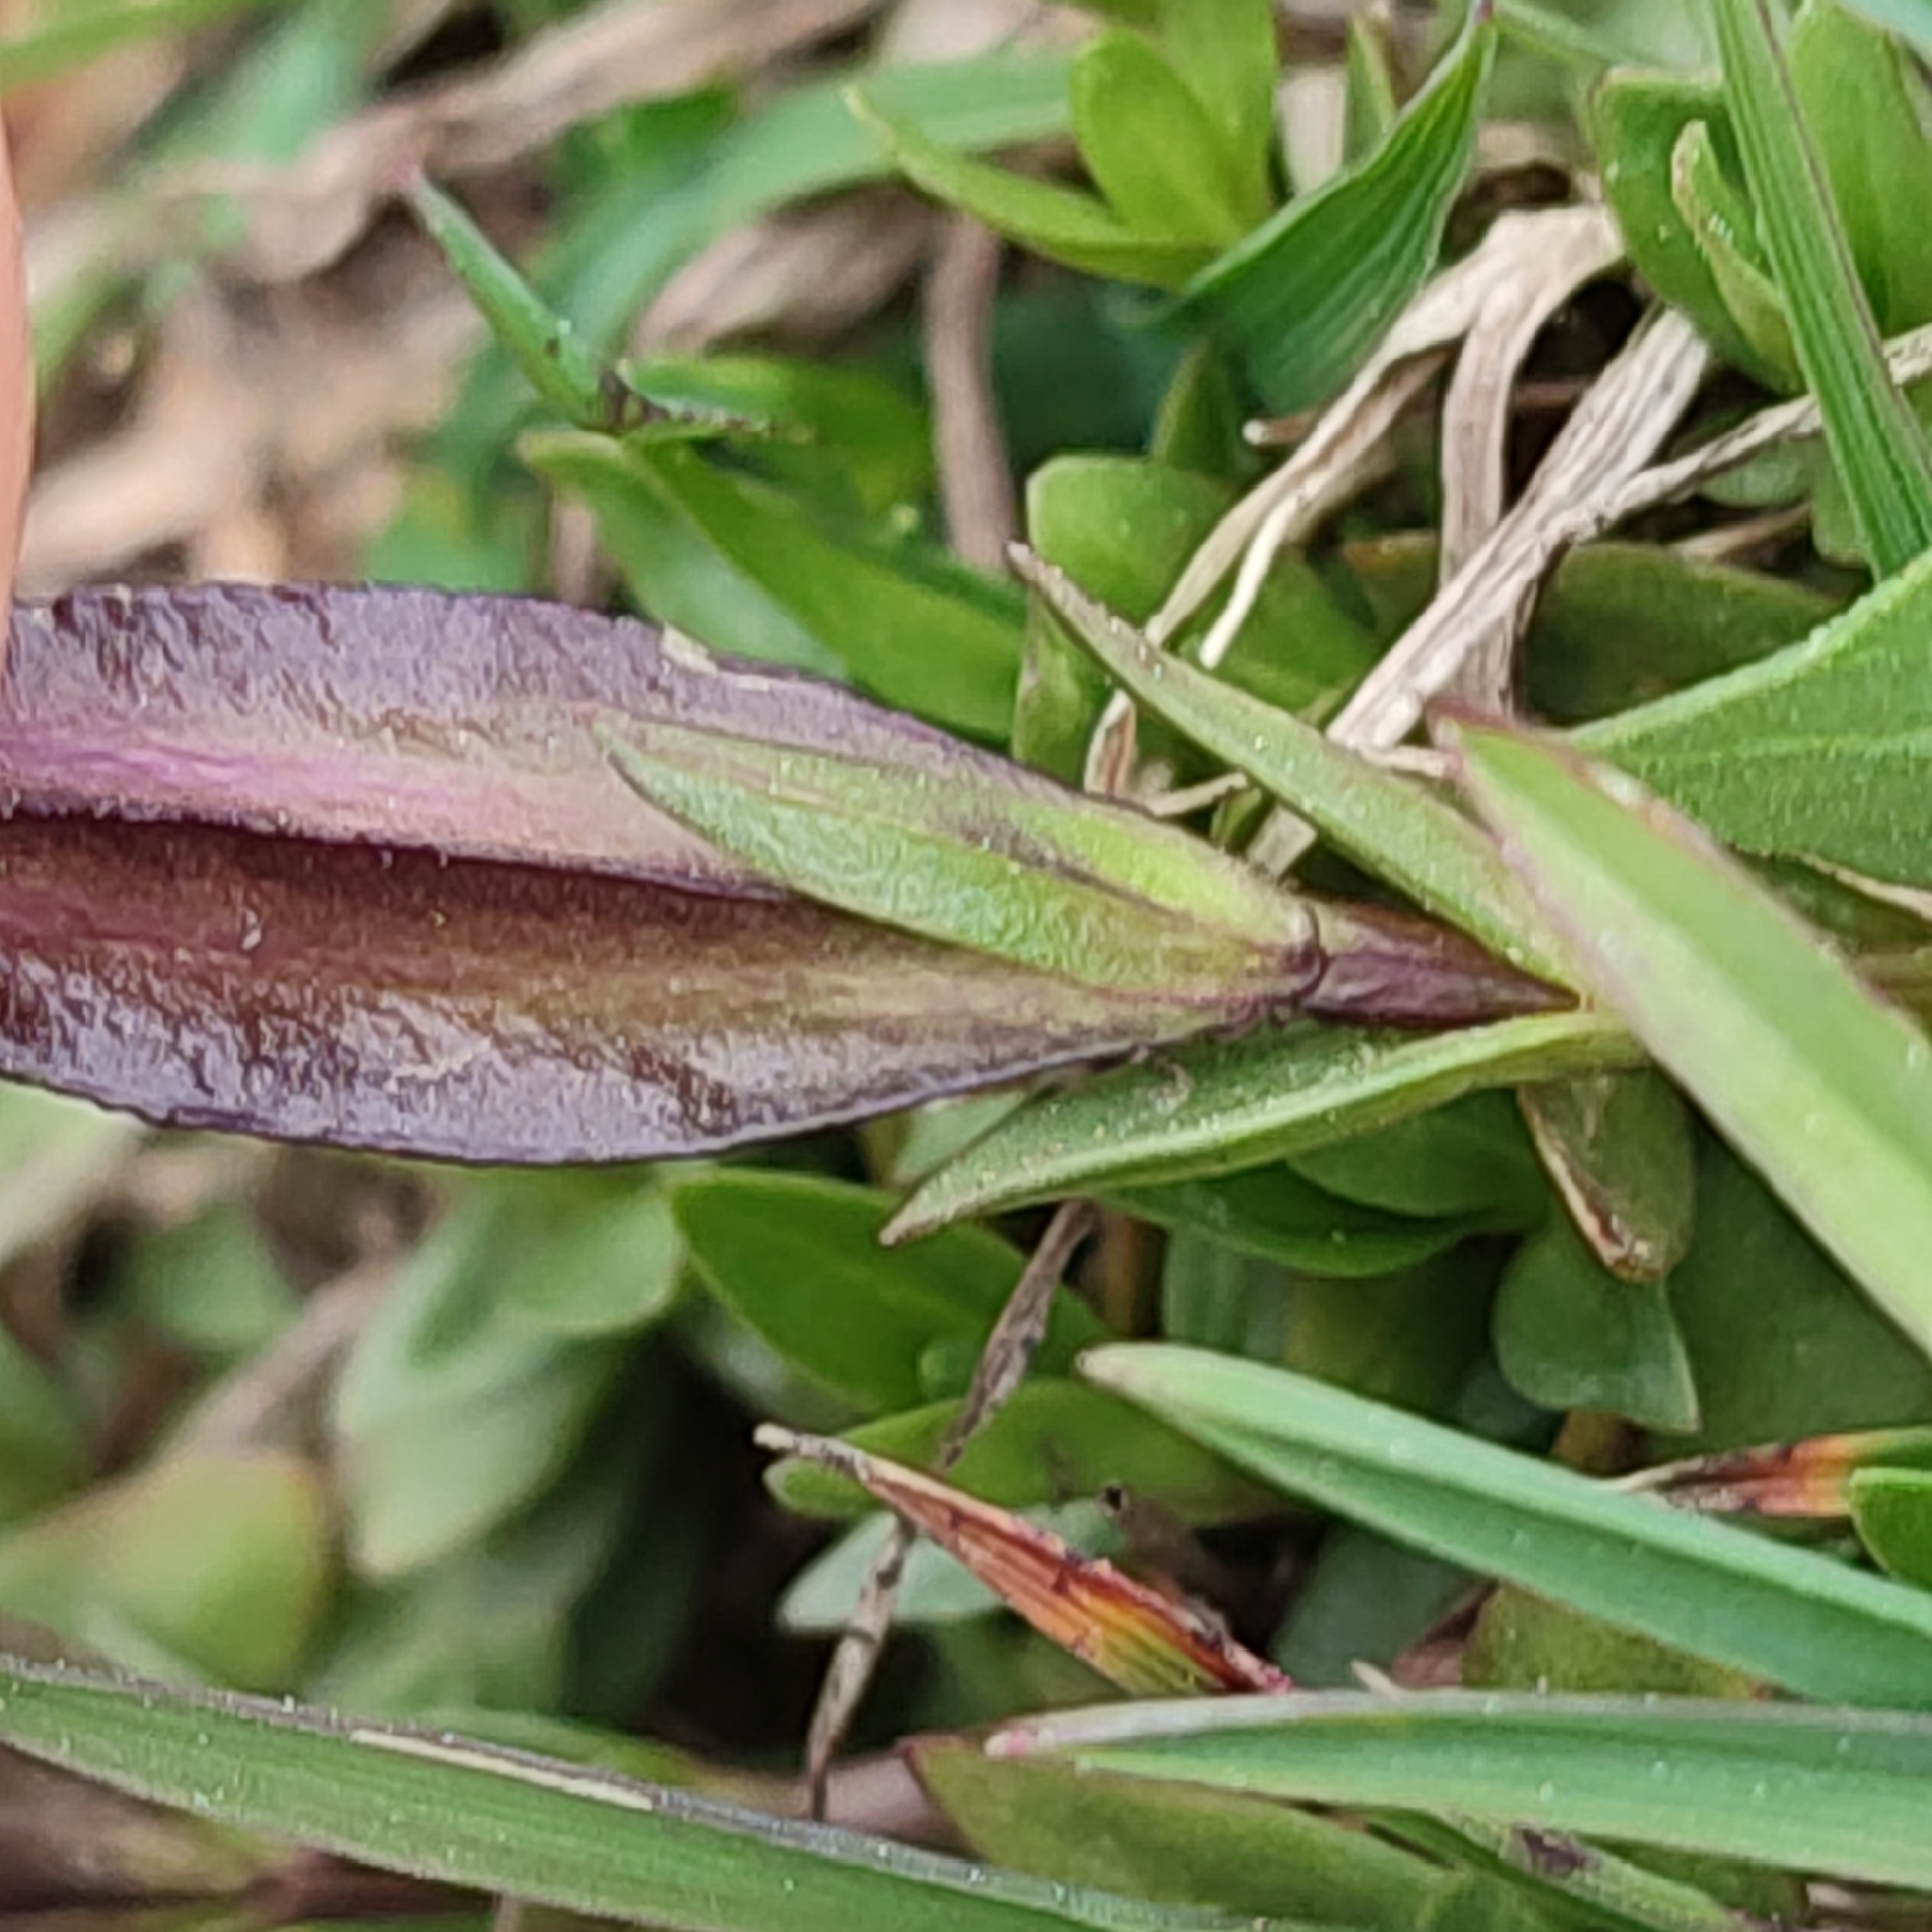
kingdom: Plantae
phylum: Tracheophyta
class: Magnoliopsida
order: Gentianales
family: Gentianaceae
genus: Gentiana
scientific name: Gentiana verna
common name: Spring gentian
